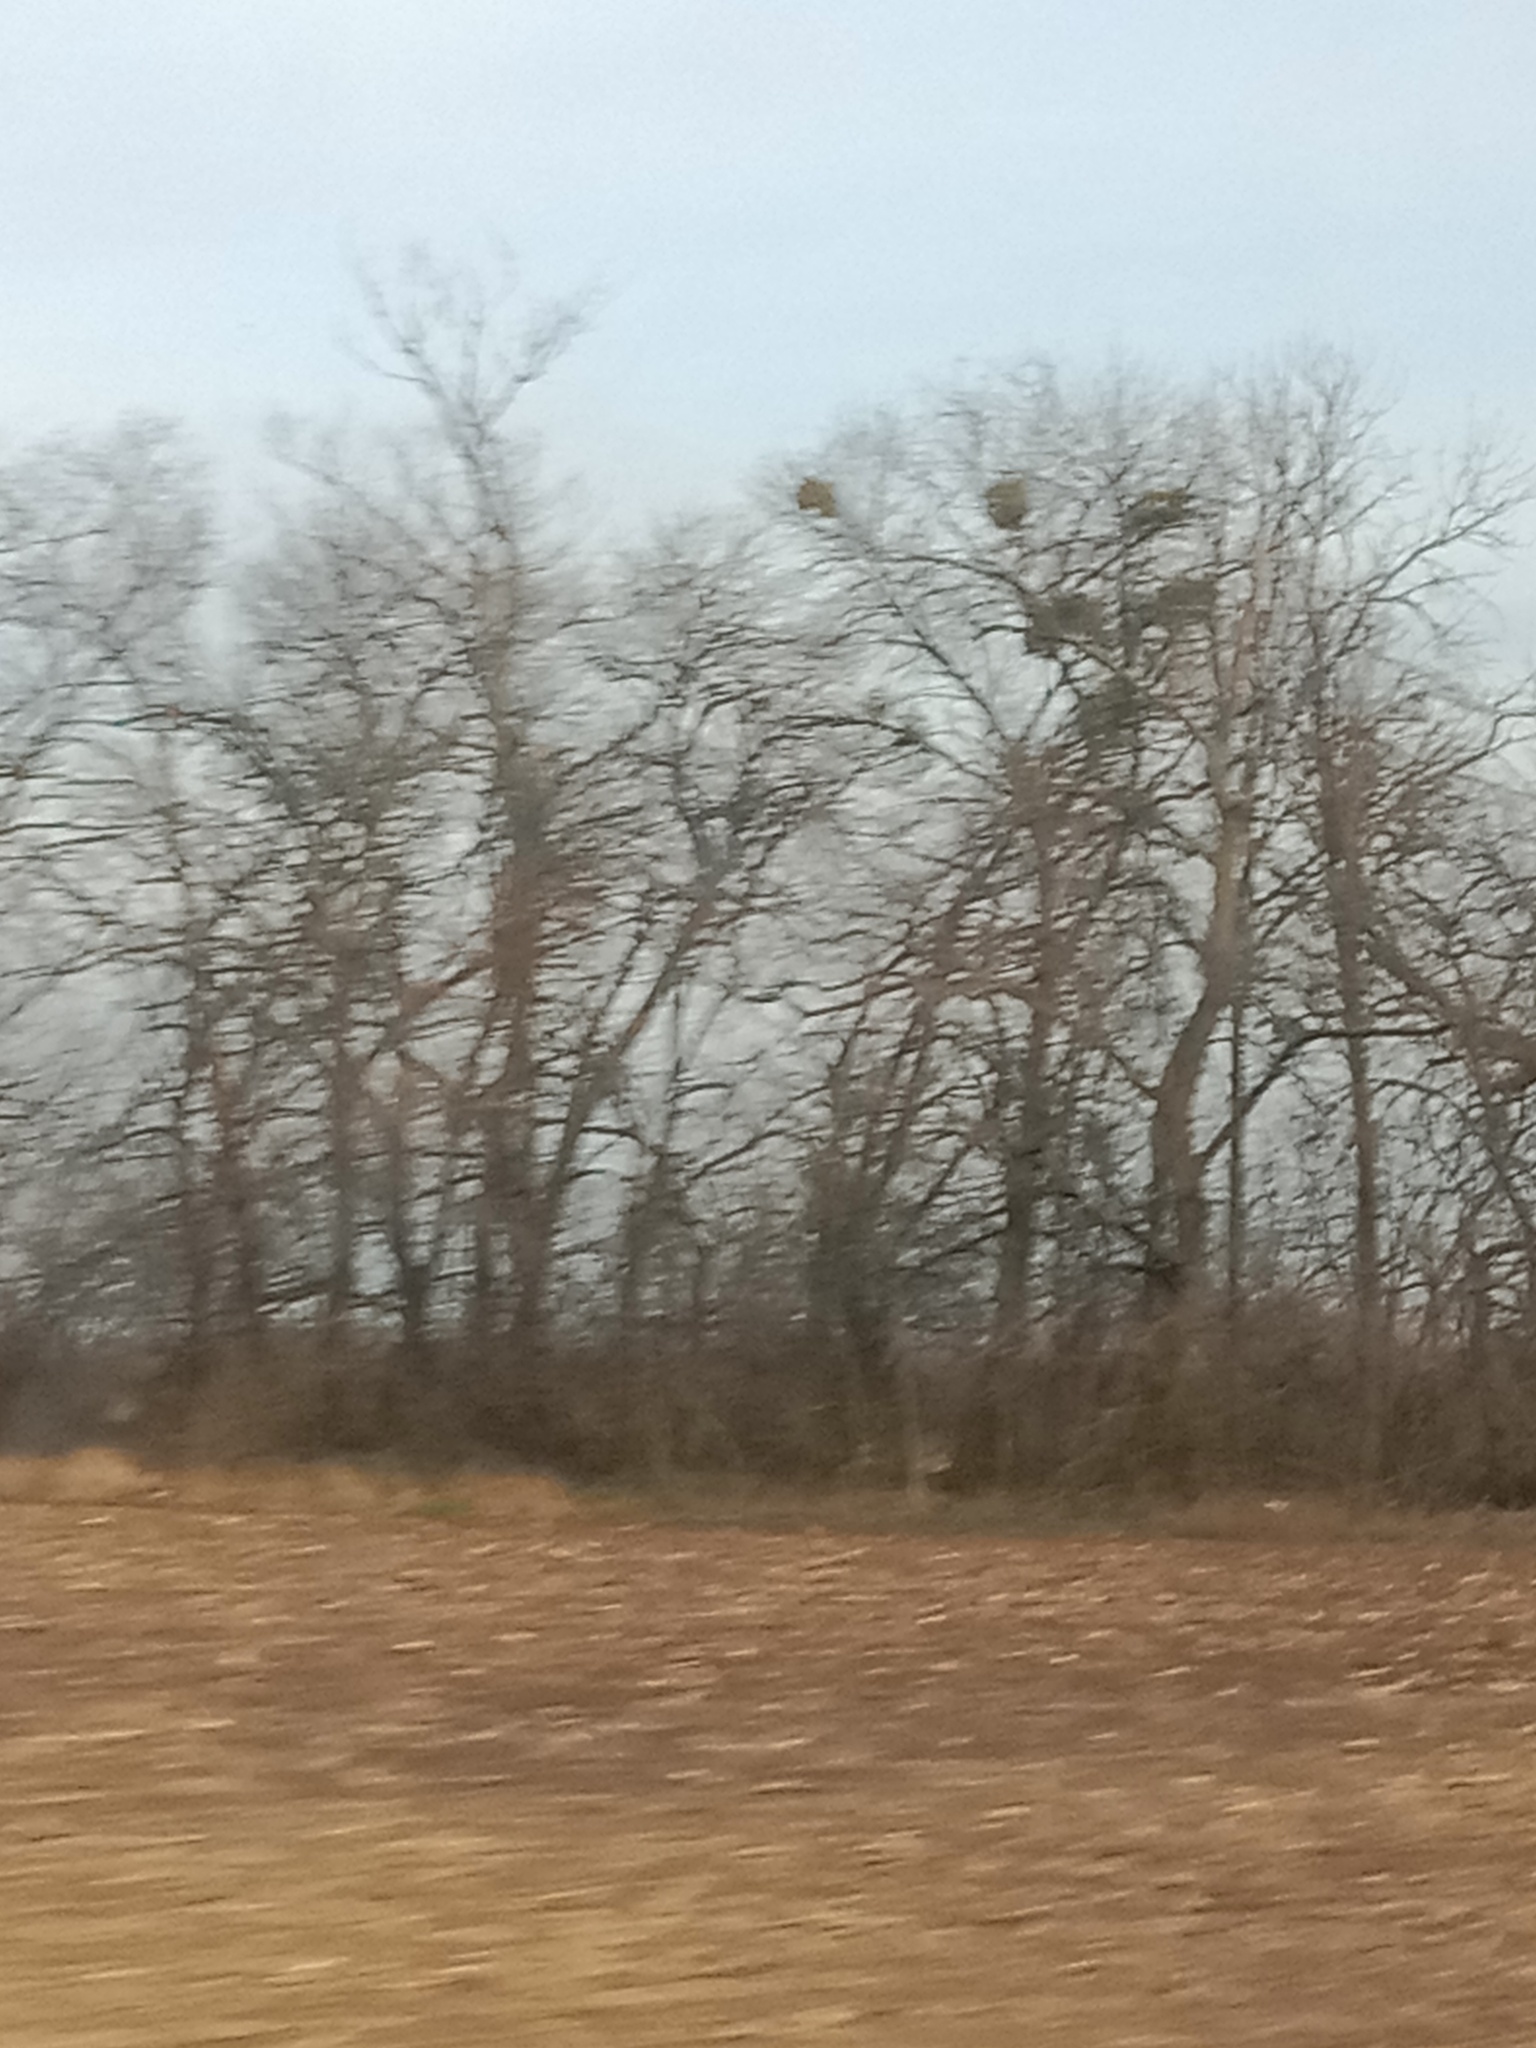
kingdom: Plantae
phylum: Tracheophyta
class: Magnoliopsida
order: Santalales
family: Viscaceae
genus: Viscum
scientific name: Viscum album
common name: Mistletoe
